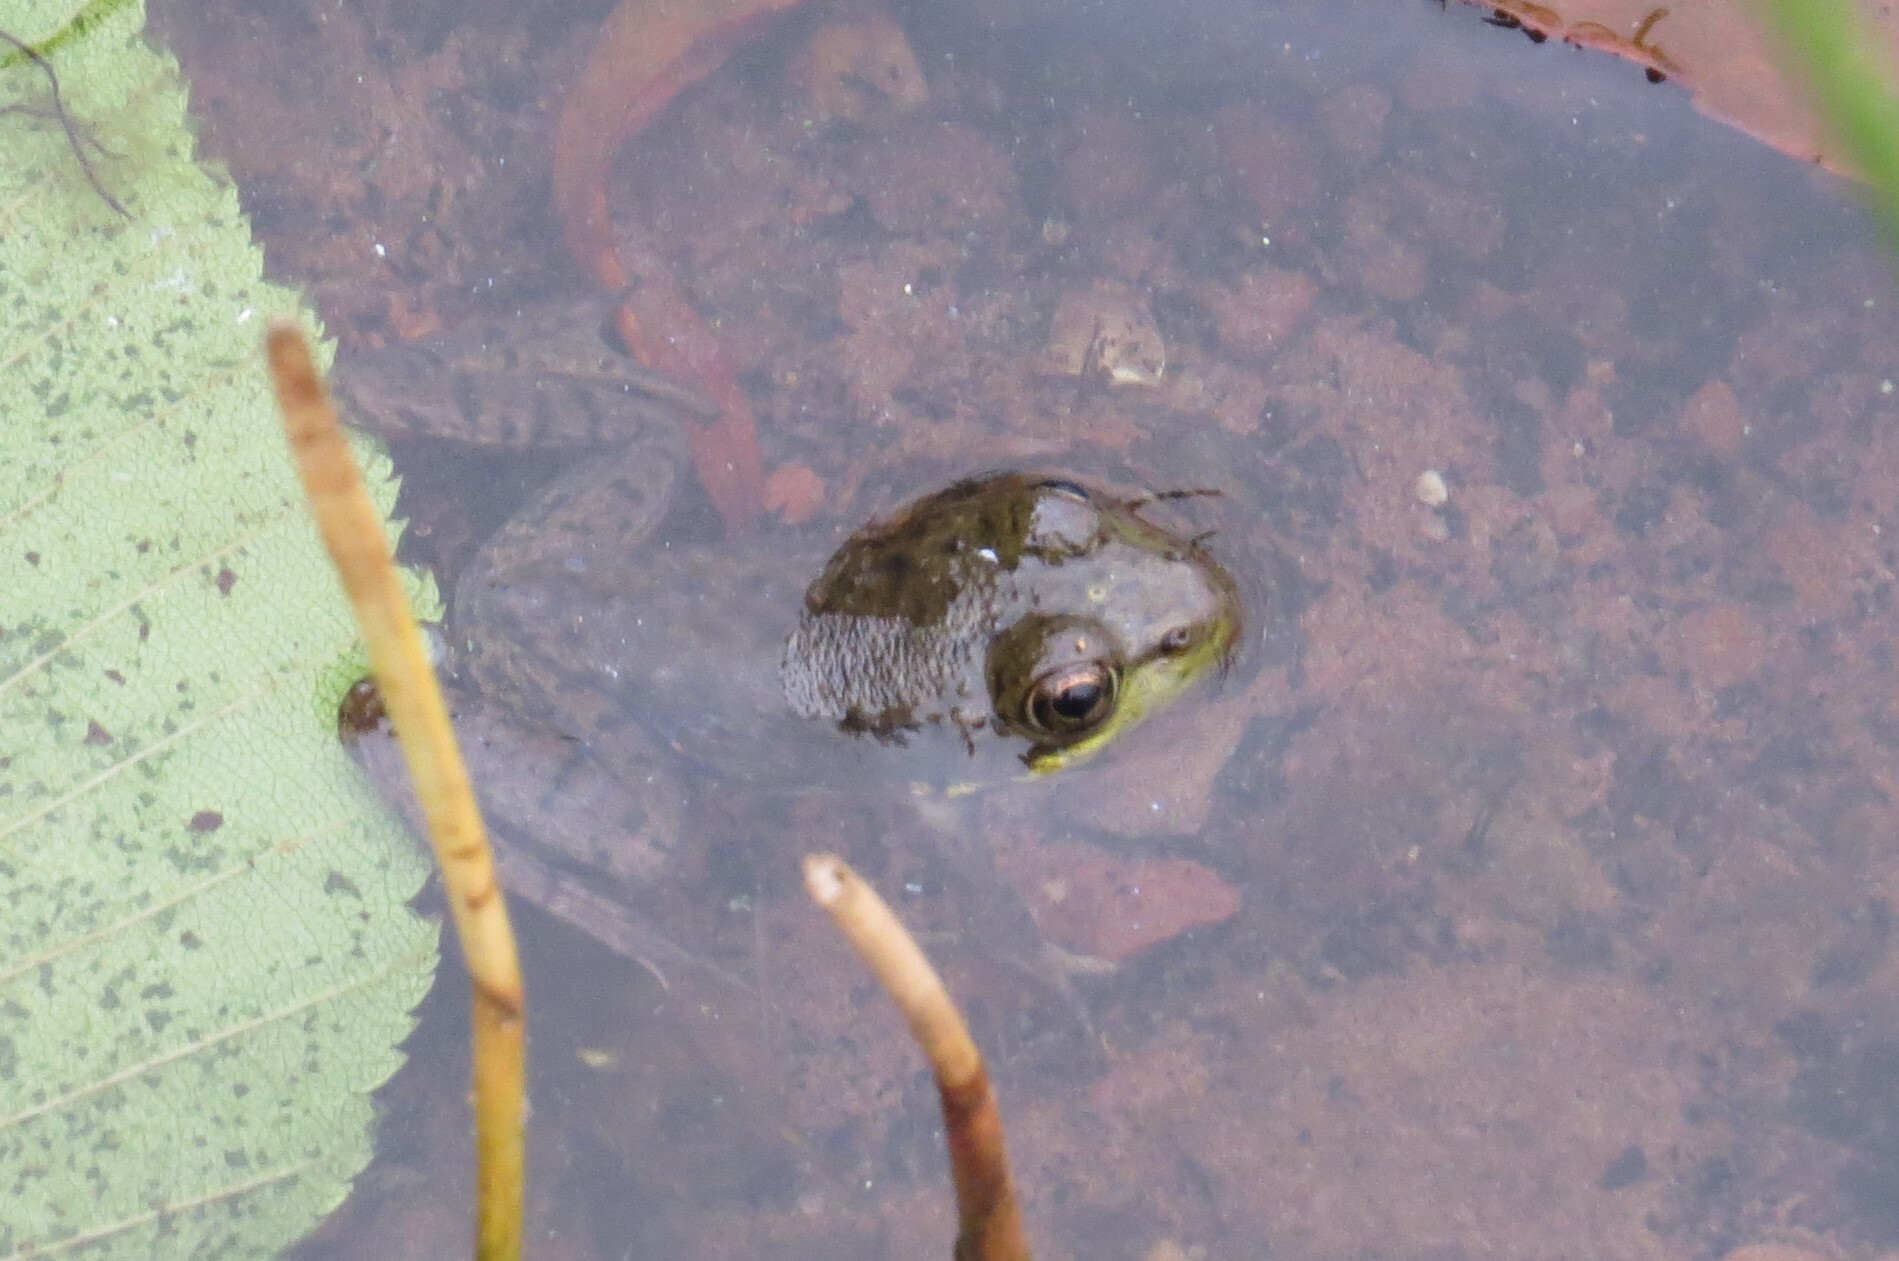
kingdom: Animalia
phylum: Chordata
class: Amphibia
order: Anura
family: Ranidae
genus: Lithobates
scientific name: Lithobates clamitans
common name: Green frog
